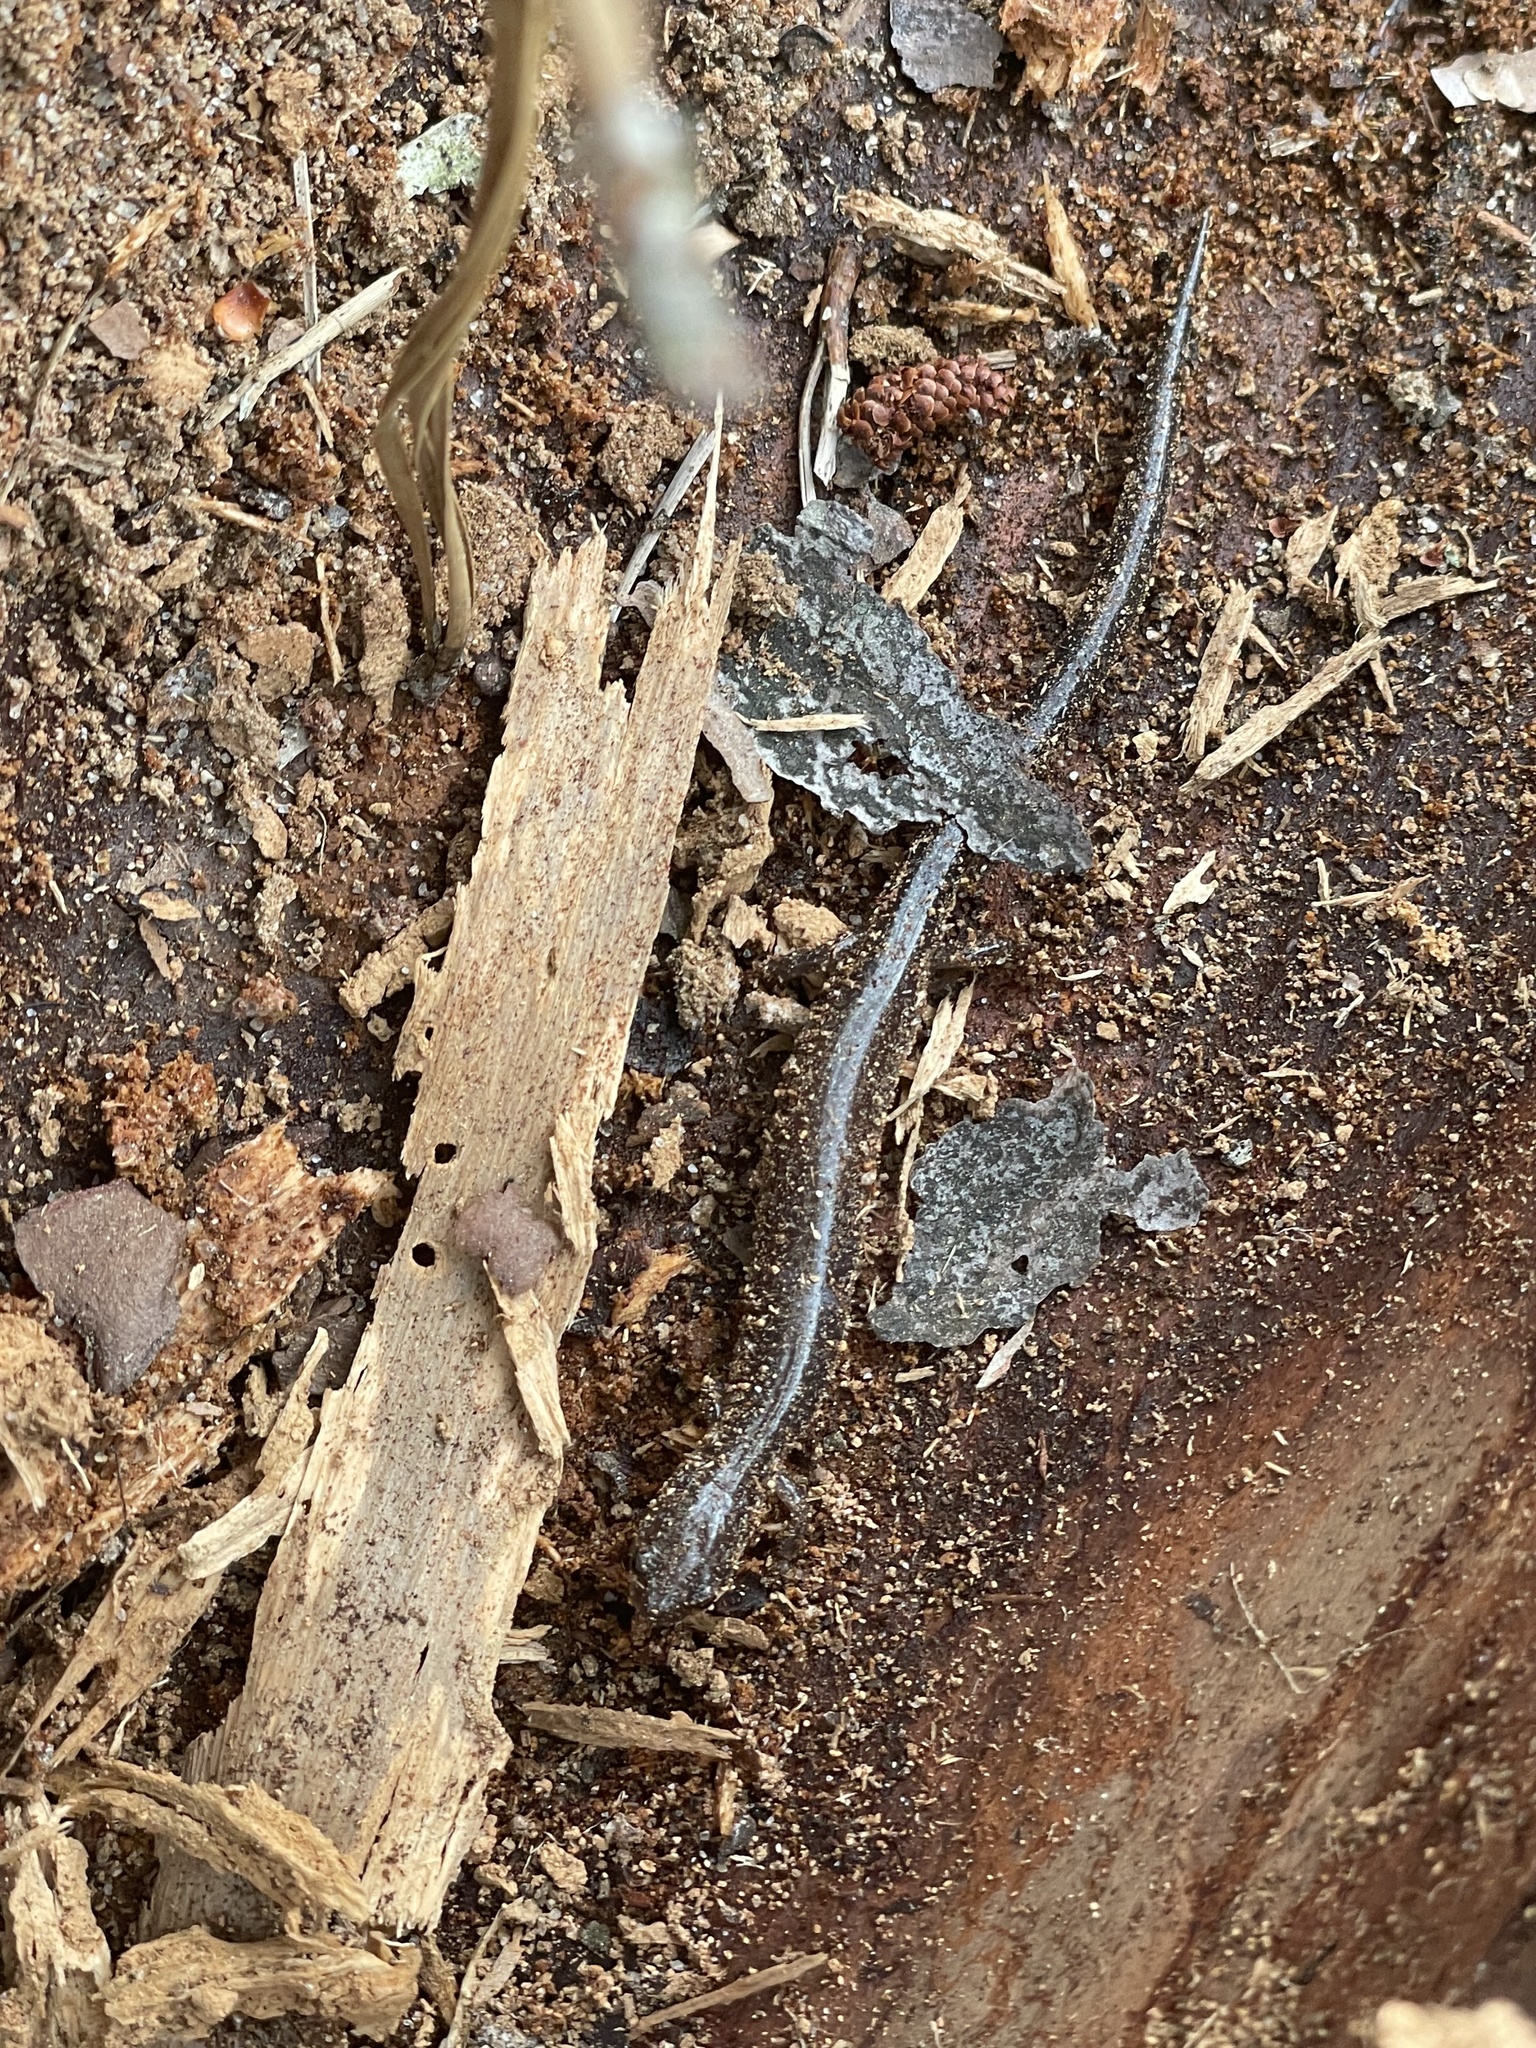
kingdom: Animalia
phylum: Chordata
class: Amphibia
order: Caudata
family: Plethodontidae
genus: Plethodon
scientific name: Plethodon cinereus
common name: Redback salamander
